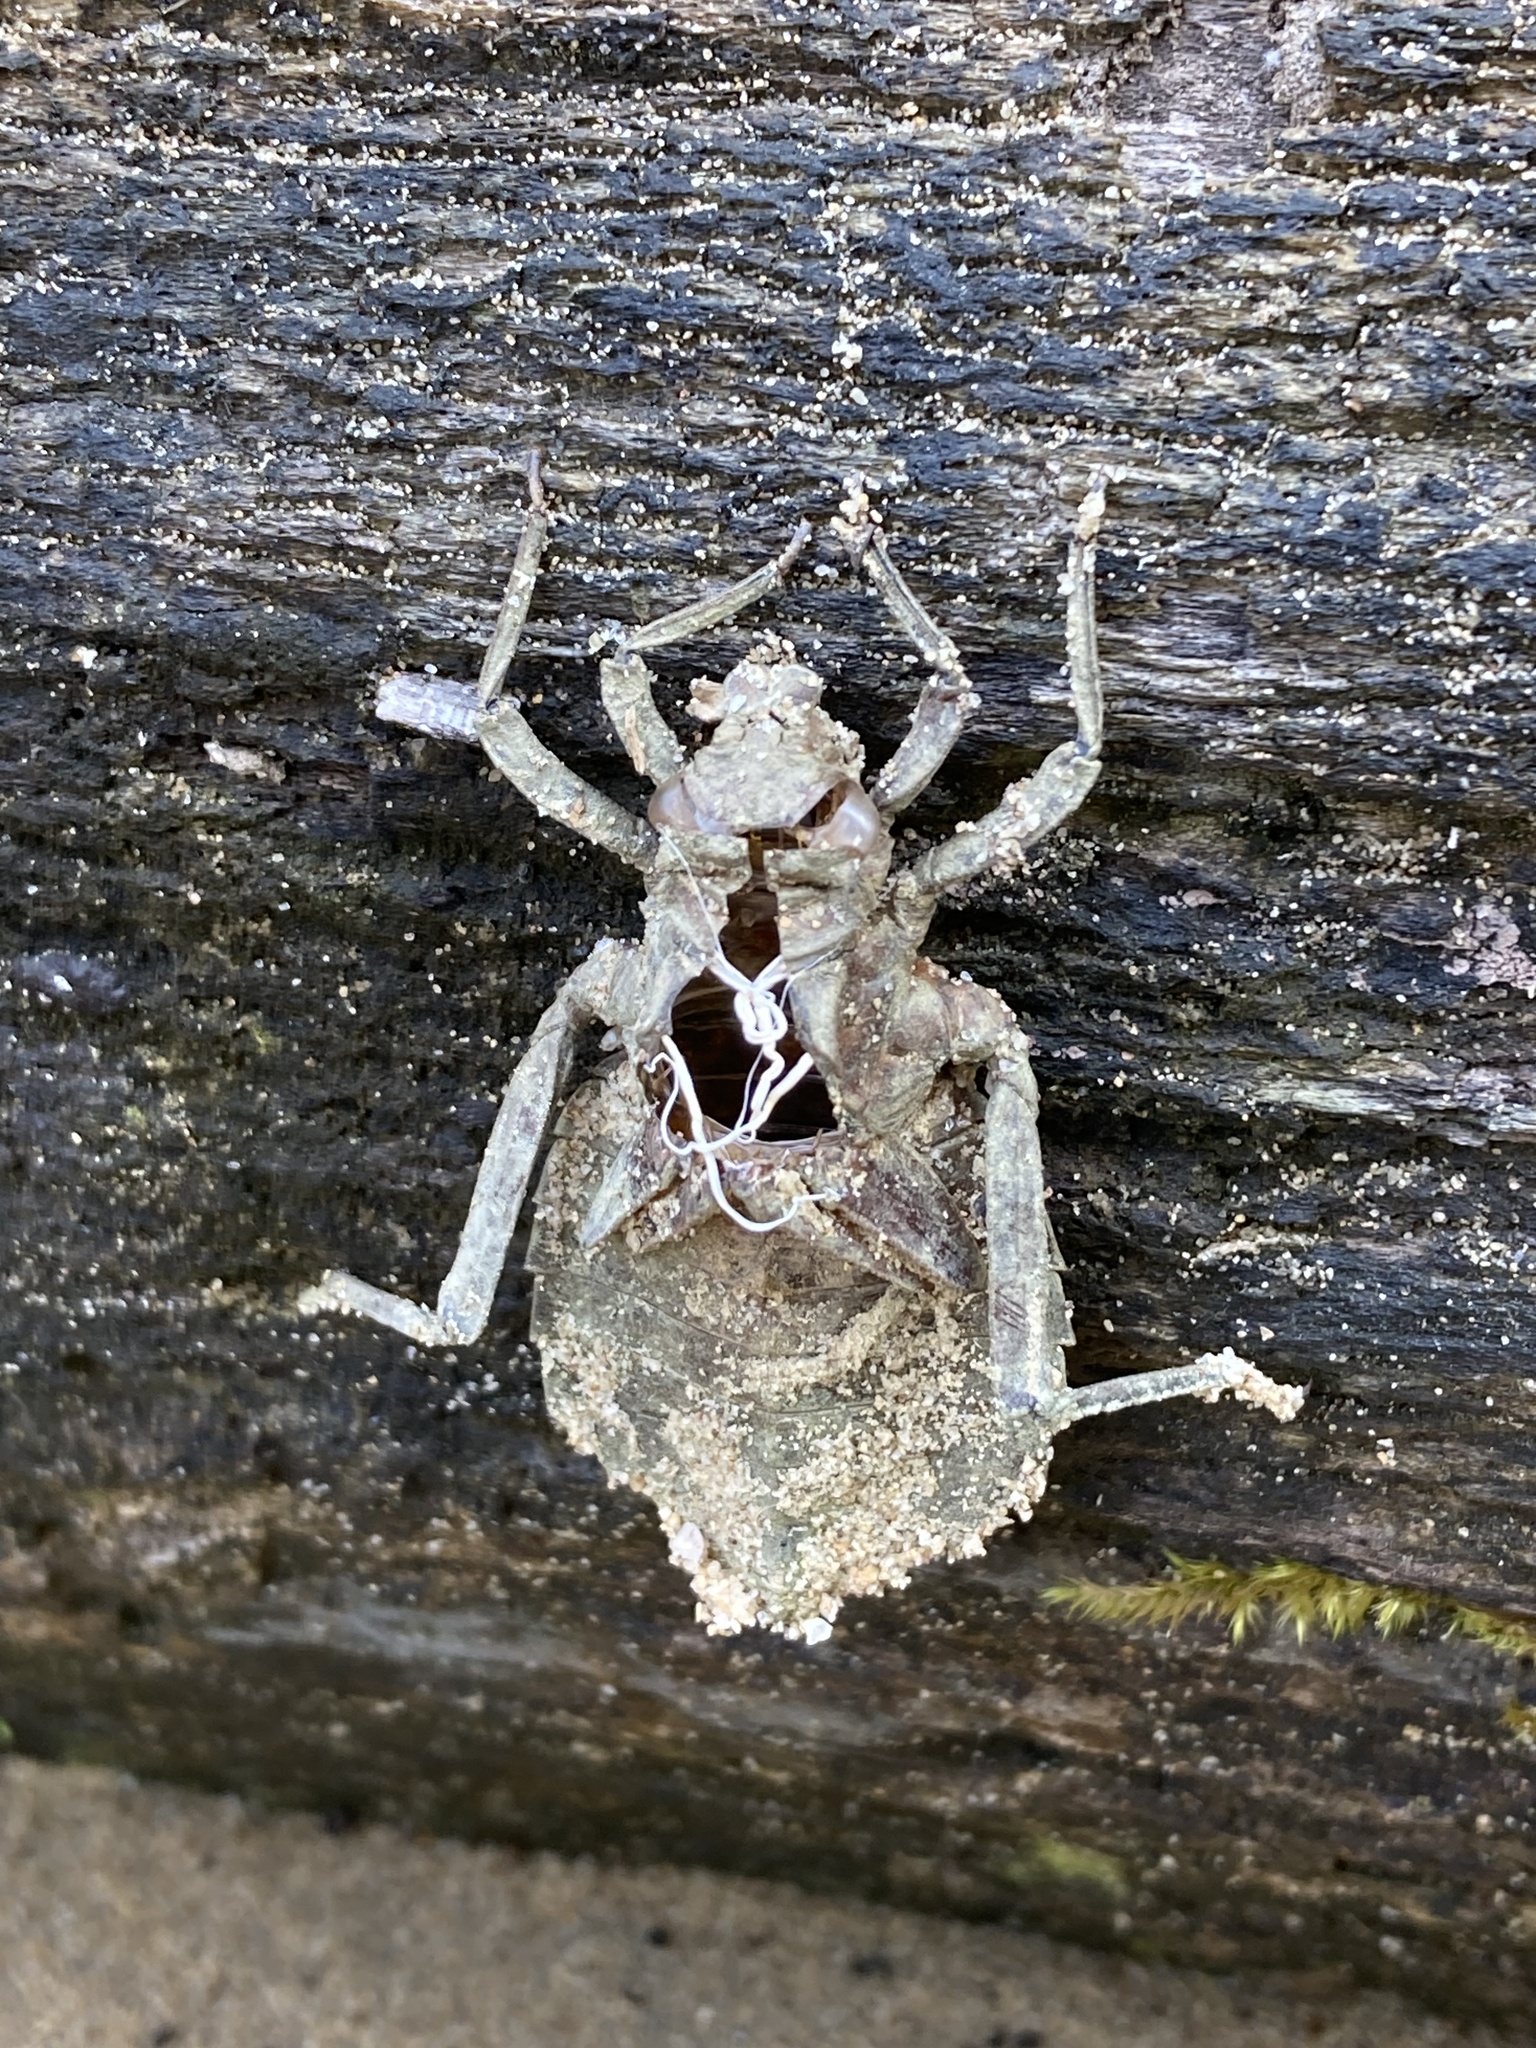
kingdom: Animalia
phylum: Arthropoda
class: Insecta
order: Odonata
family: Gomphidae
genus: Hagenius
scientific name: Hagenius brevistylus
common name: Dragonhunter
